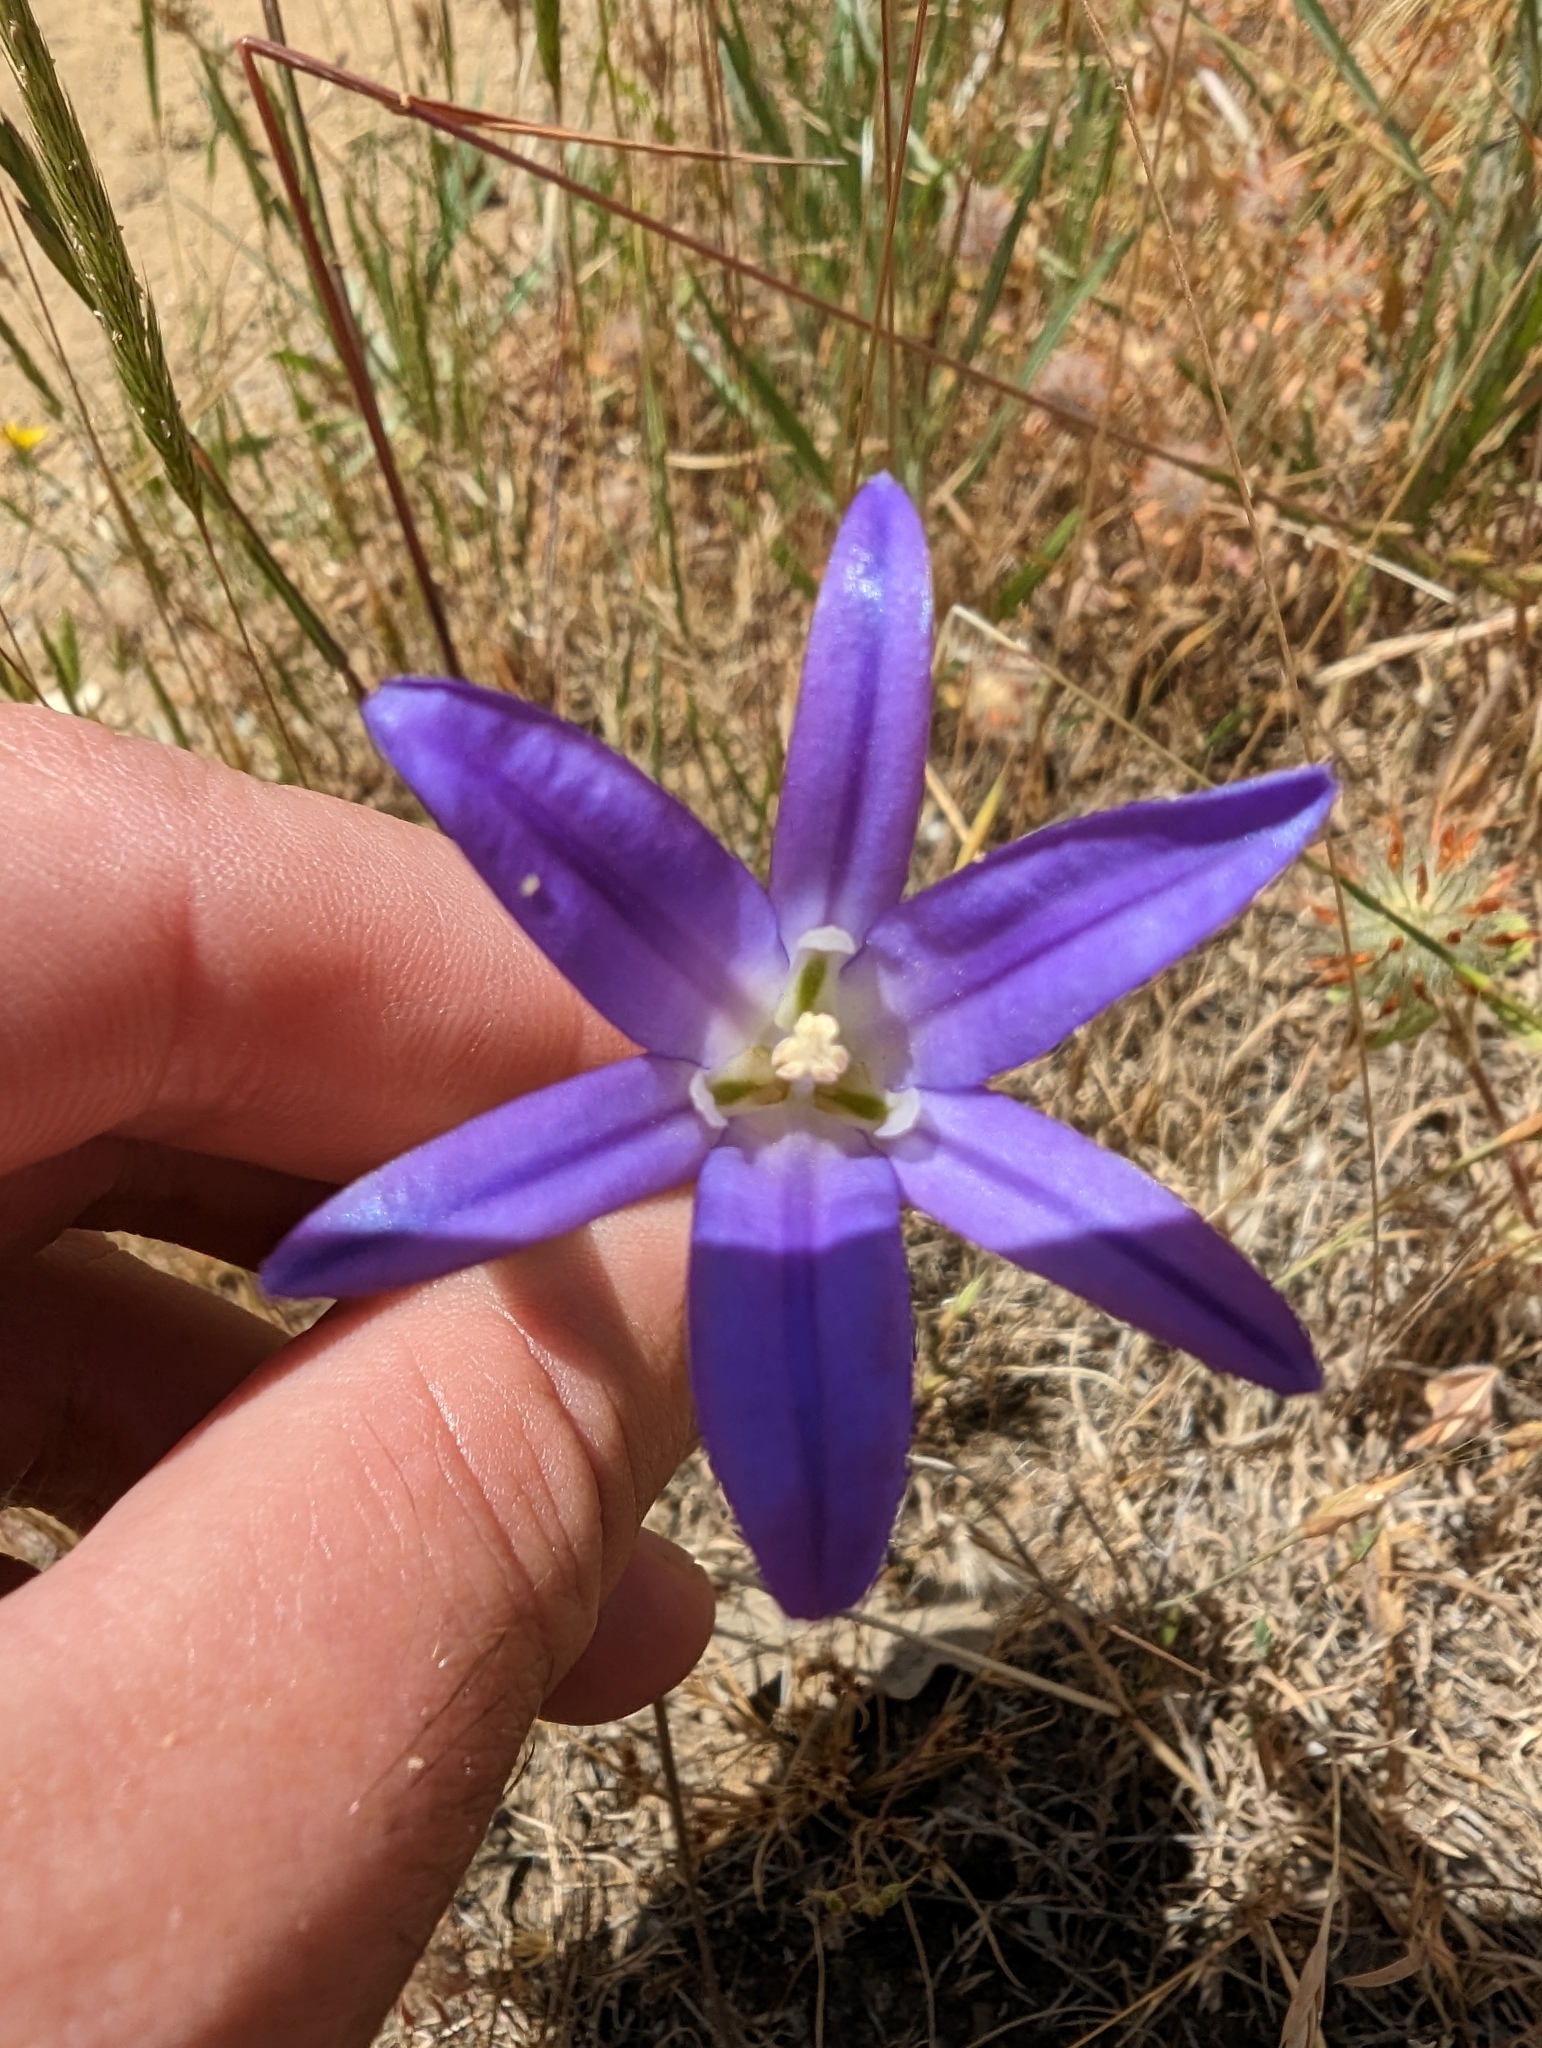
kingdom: Plantae
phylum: Tracheophyta
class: Liliopsida
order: Asparagales
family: Asparagaceae
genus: Brodiaea
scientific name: Brodiaea elegans
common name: Elegant cluster-lily
